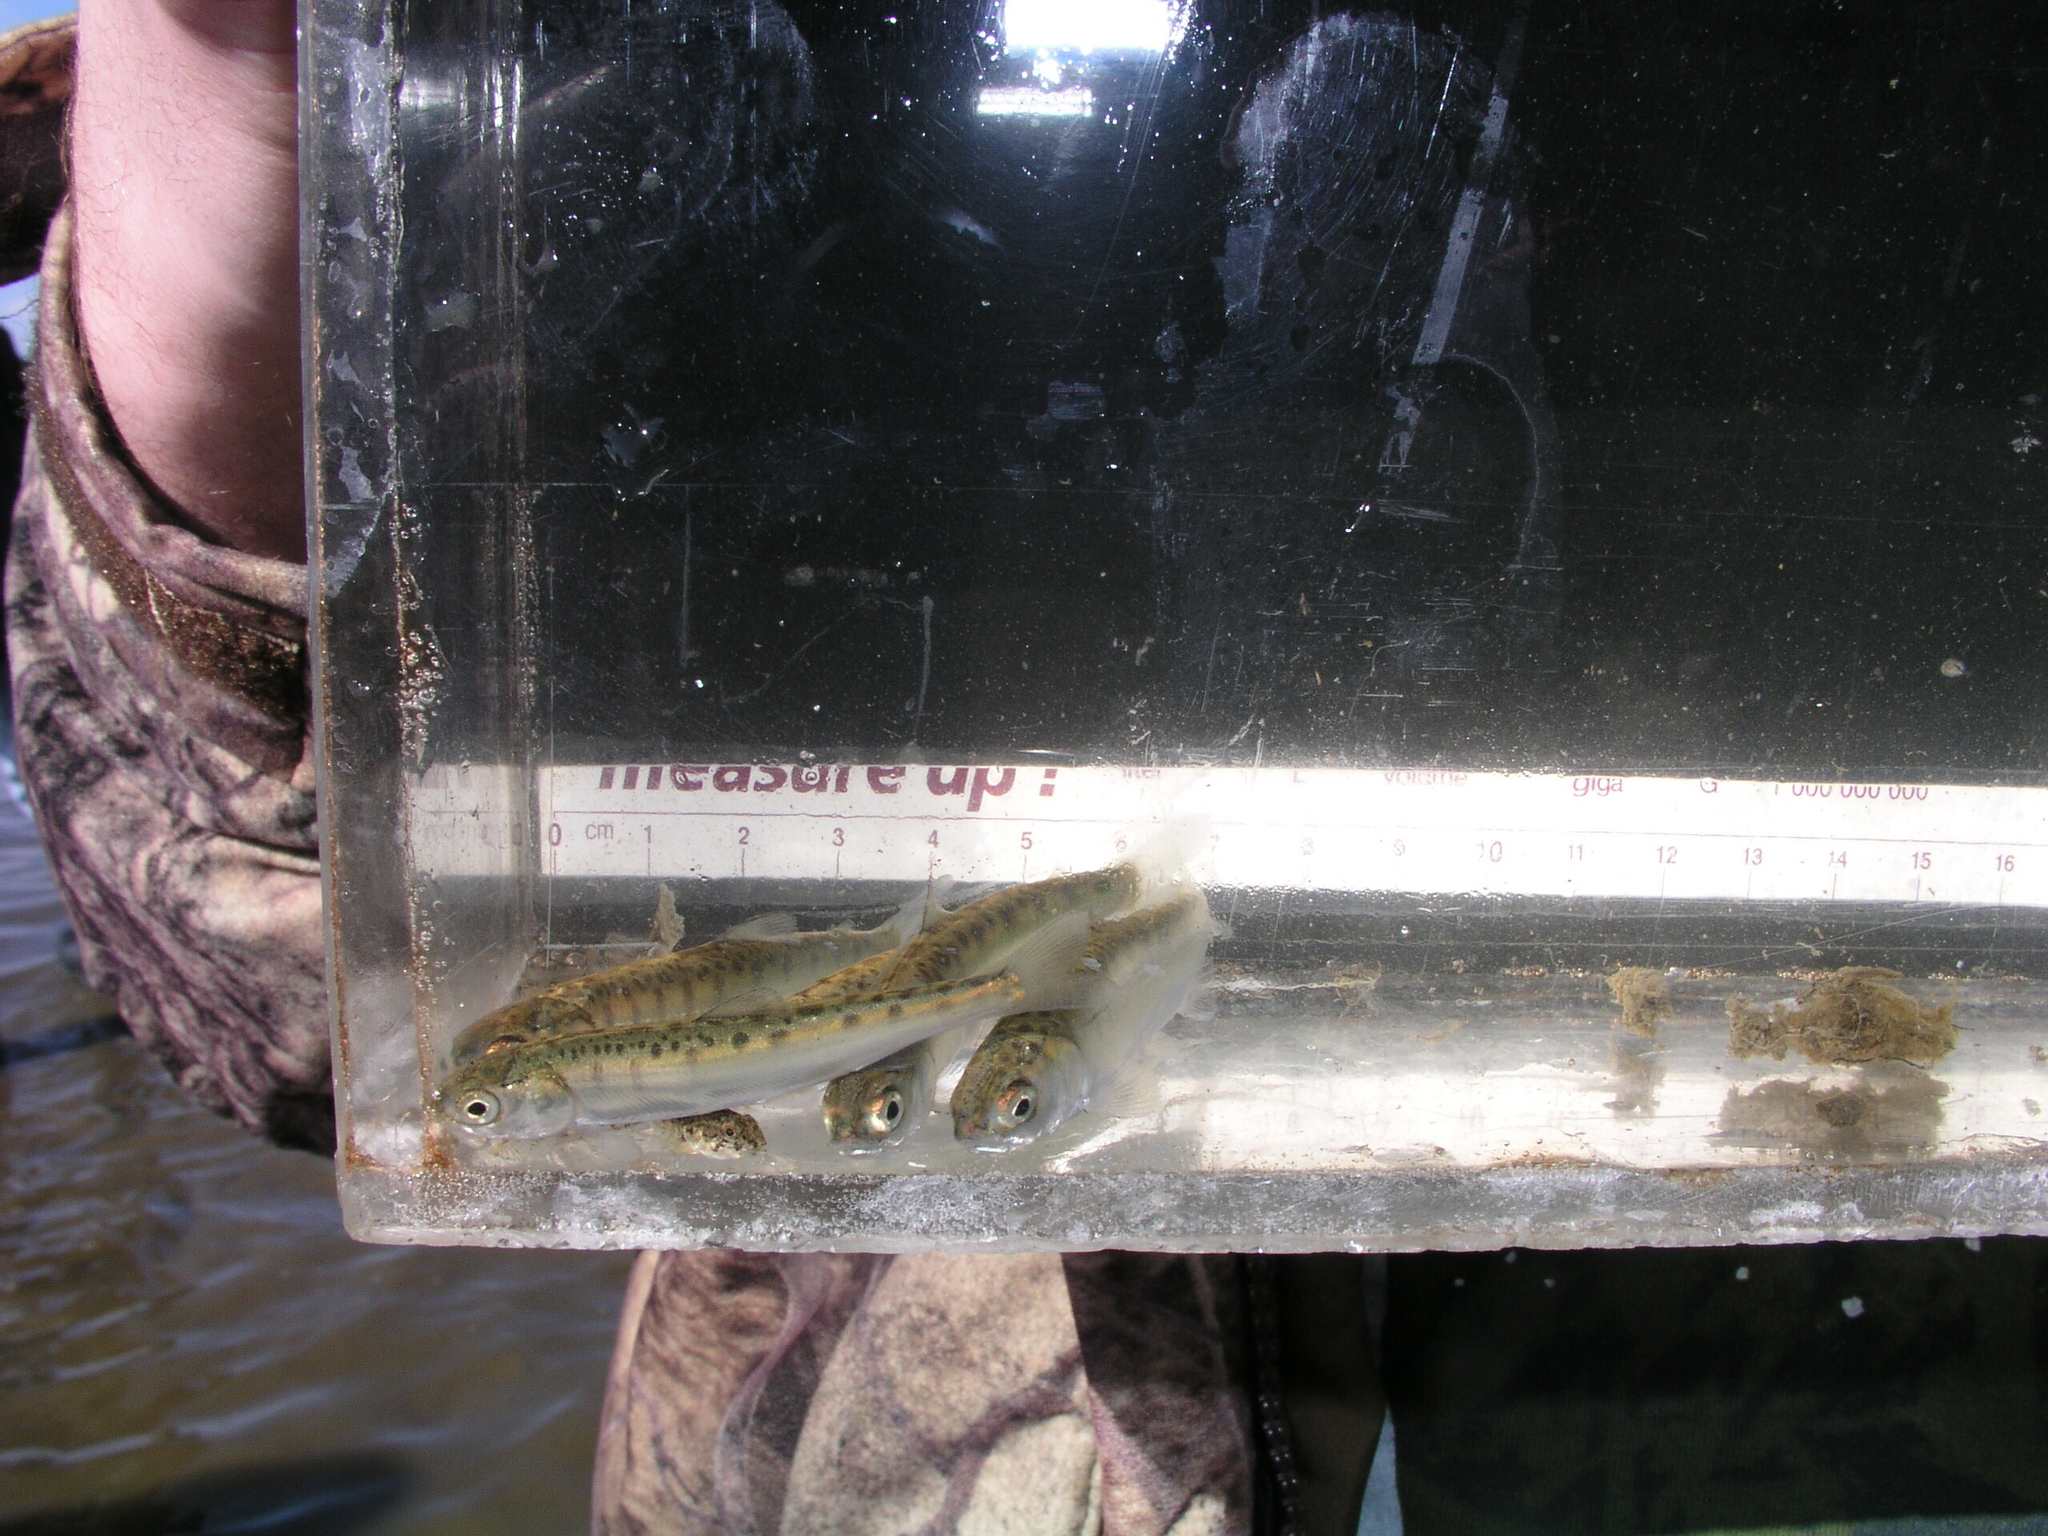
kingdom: Animalia
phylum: Chordata
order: Salmoniformes
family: Salmonidae
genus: Oncorhynchus
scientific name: Oncorhynchus keta
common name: Chum salmon
